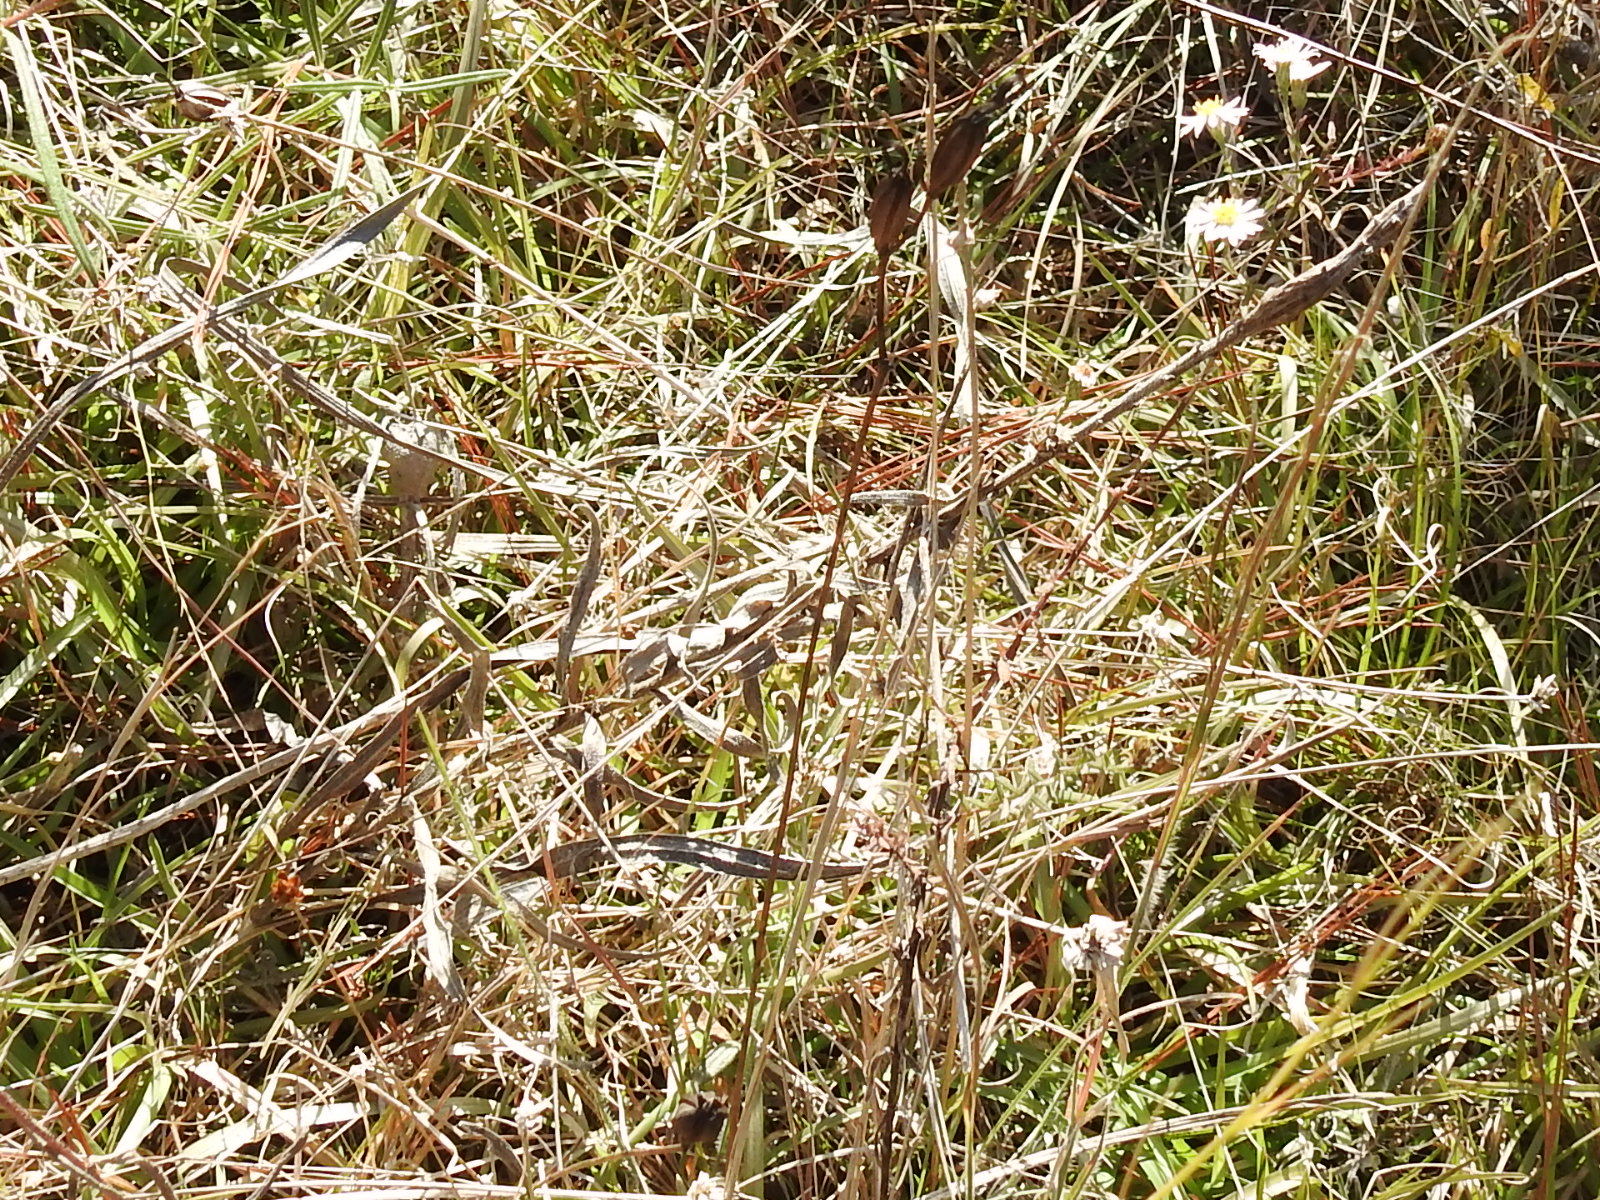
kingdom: Plantae
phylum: Tracheophyta
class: Liliopsida
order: Asparagales
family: Orchidaceae
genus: Calopogon
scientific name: Calopogon tuberosus
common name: Grass-pink
